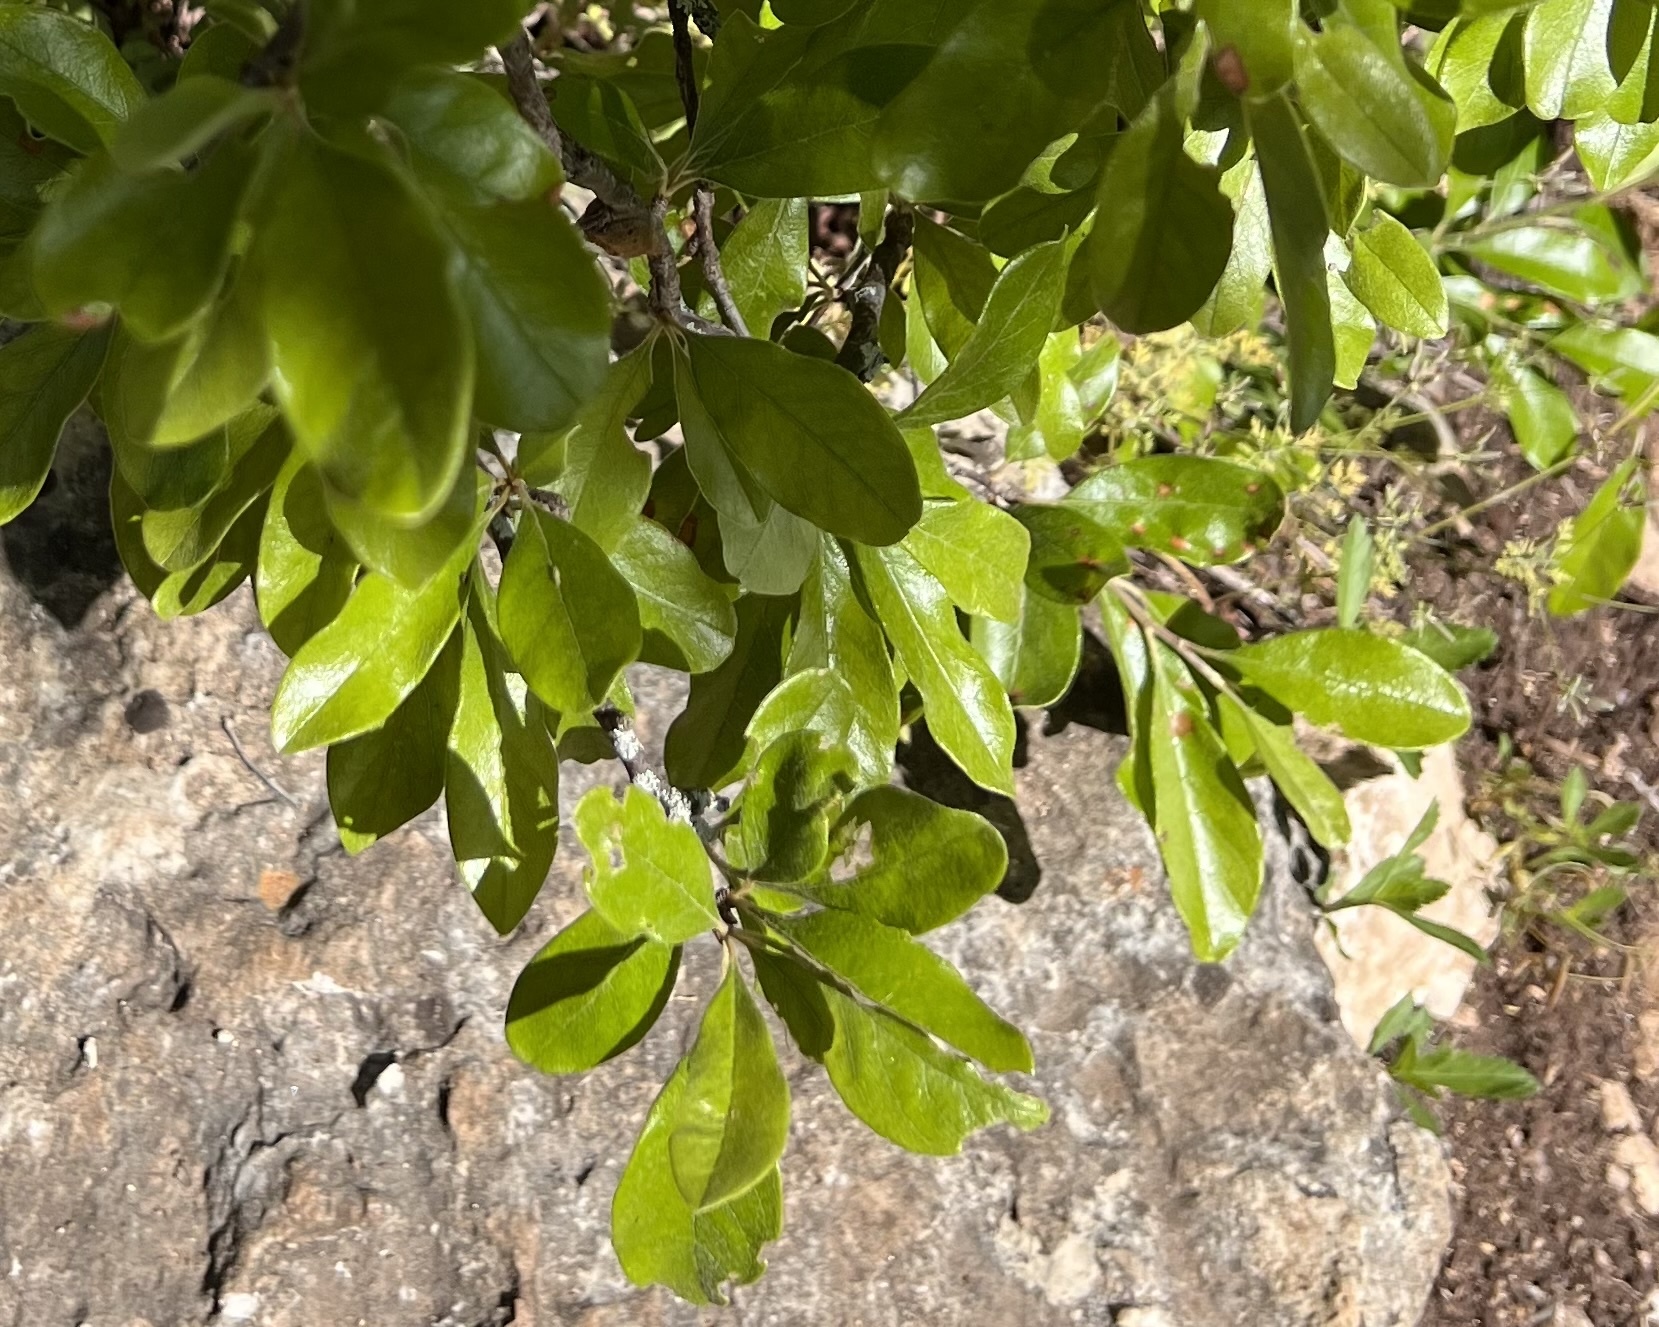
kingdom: Plantae
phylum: Tracheophyta
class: Magnoliopsida
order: Ericales
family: Sapotaceae
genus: Sideroxylon
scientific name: Sideroxylon lanuginosum
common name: Chittamwood
